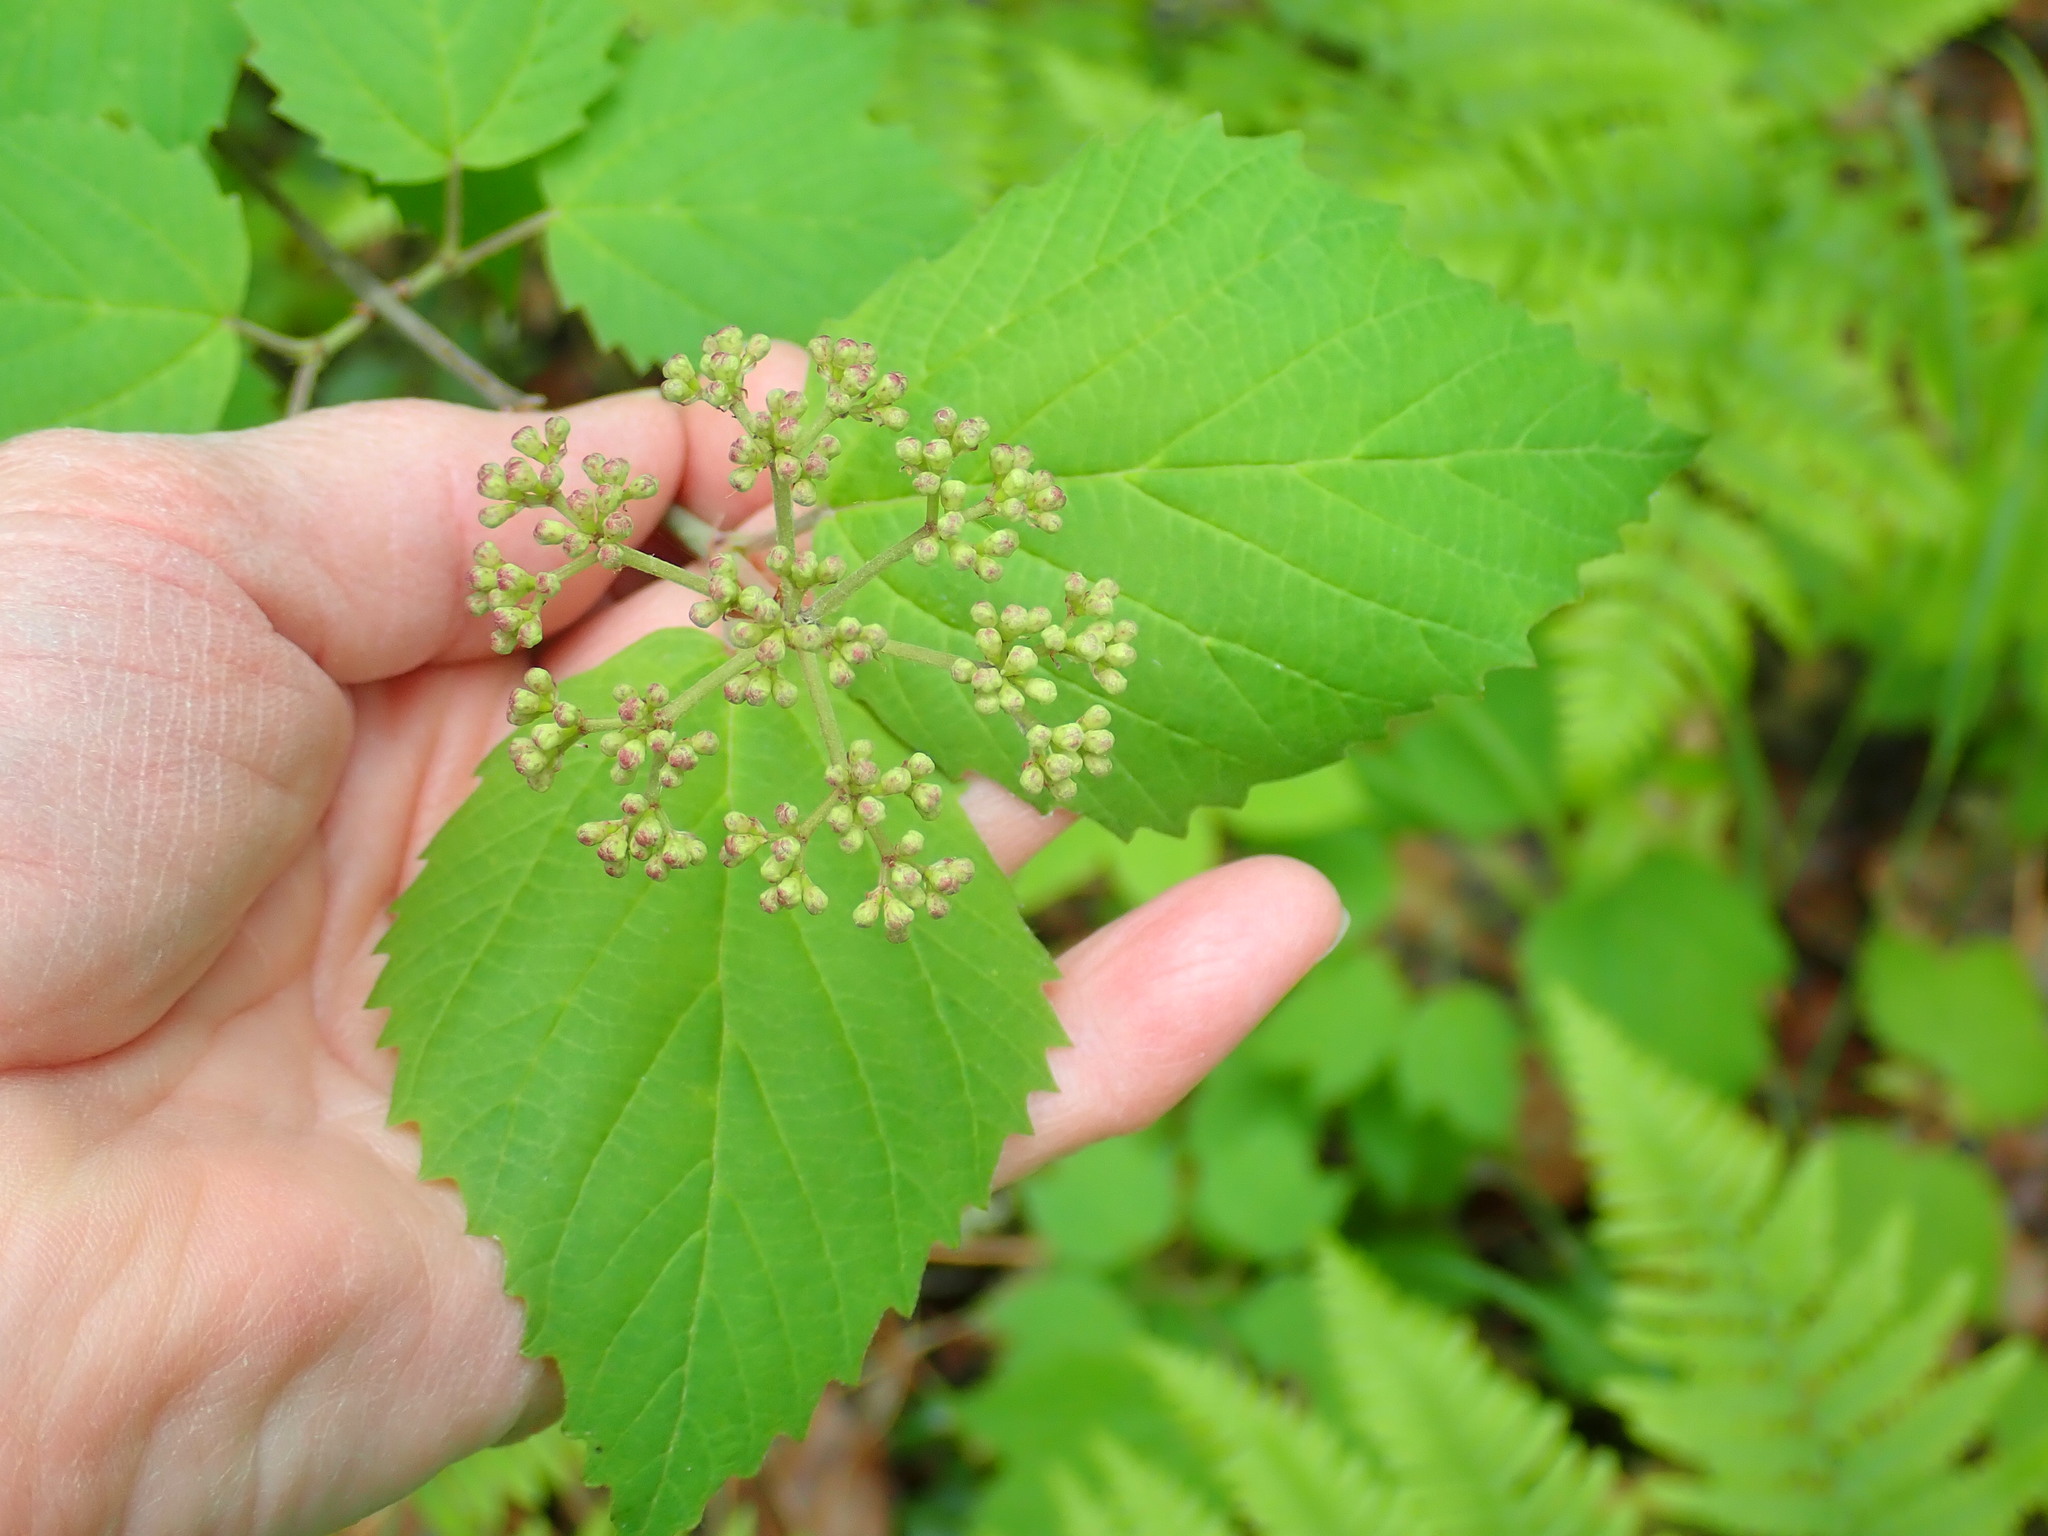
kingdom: Plantae
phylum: Tracheophyta
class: Magnoliopsida
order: Dipsacales
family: Viburnaceae
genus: Viburnum
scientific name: Viburnum acerifolium
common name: Dockmackie
